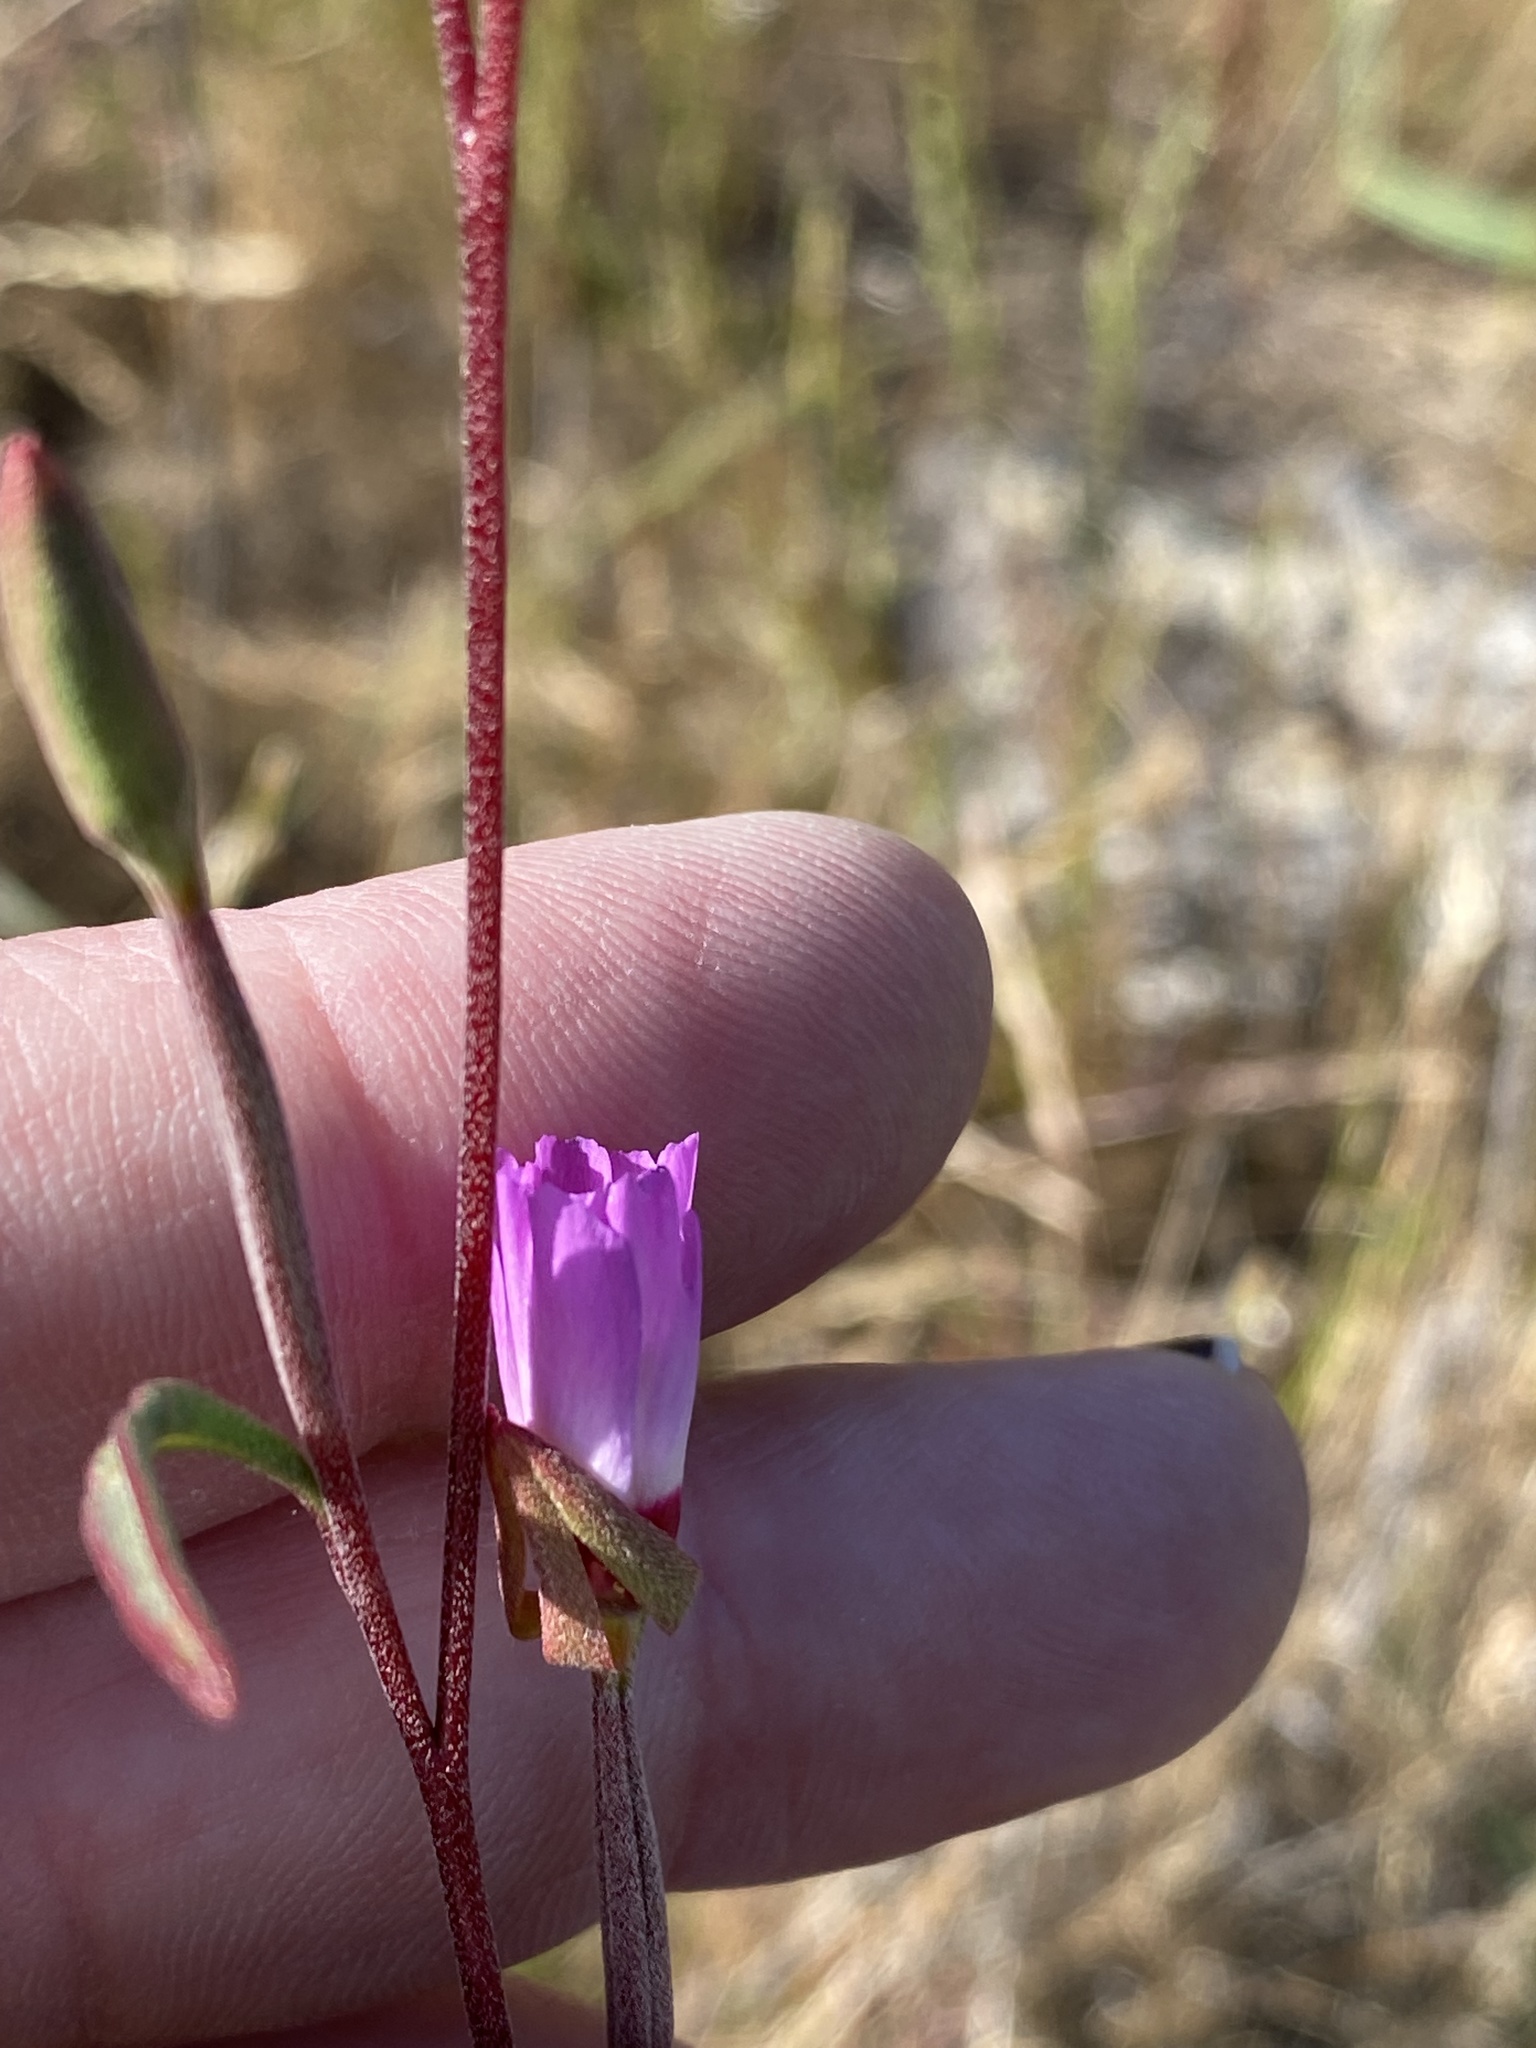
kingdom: Plantae
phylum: Tracheophyta
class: Magnoliopsida
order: Myrtales
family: Onagraceae
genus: Clarkia
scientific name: Clarkia franciscana
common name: Presidio clarkia
